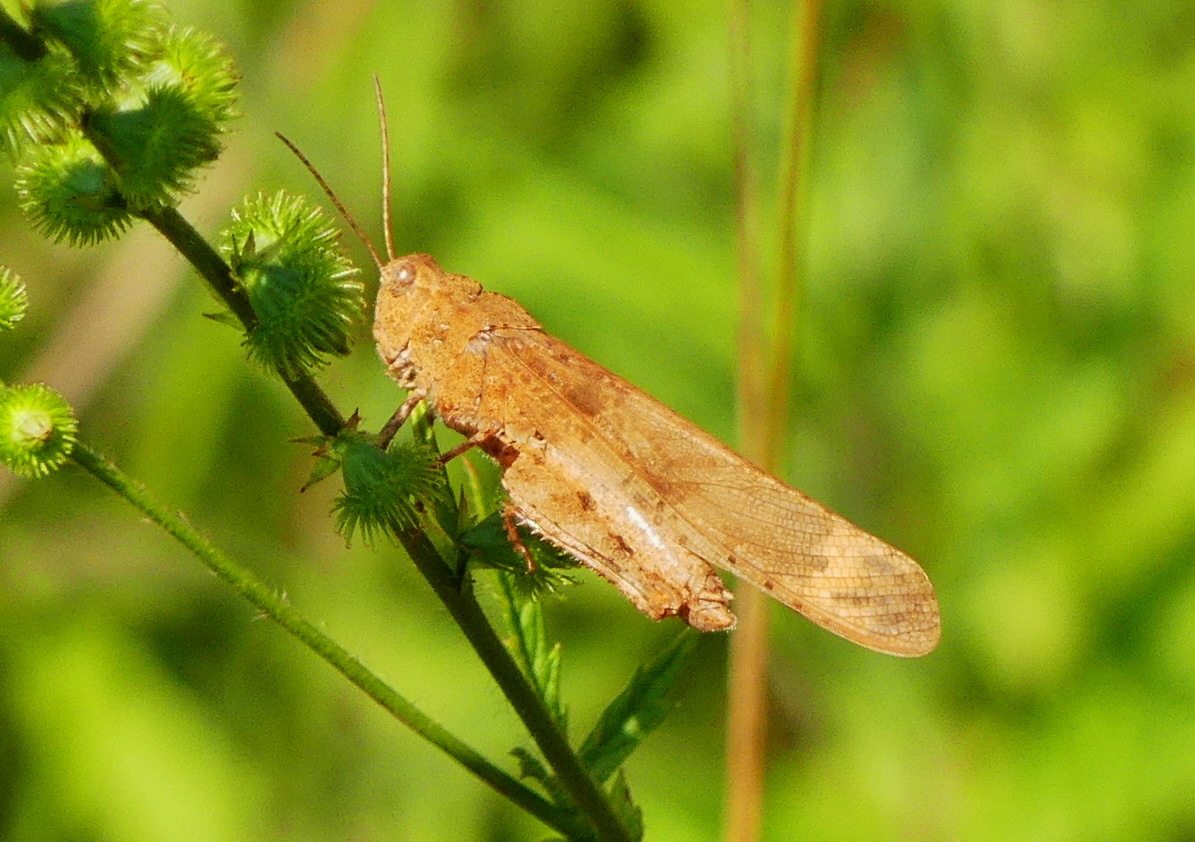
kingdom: Animalia
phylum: Arthropoda
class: Insecta
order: Orthoptera
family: Acrididae
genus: Dissosteira
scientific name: Dissosteira carolina
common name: Carolina grasshopper
